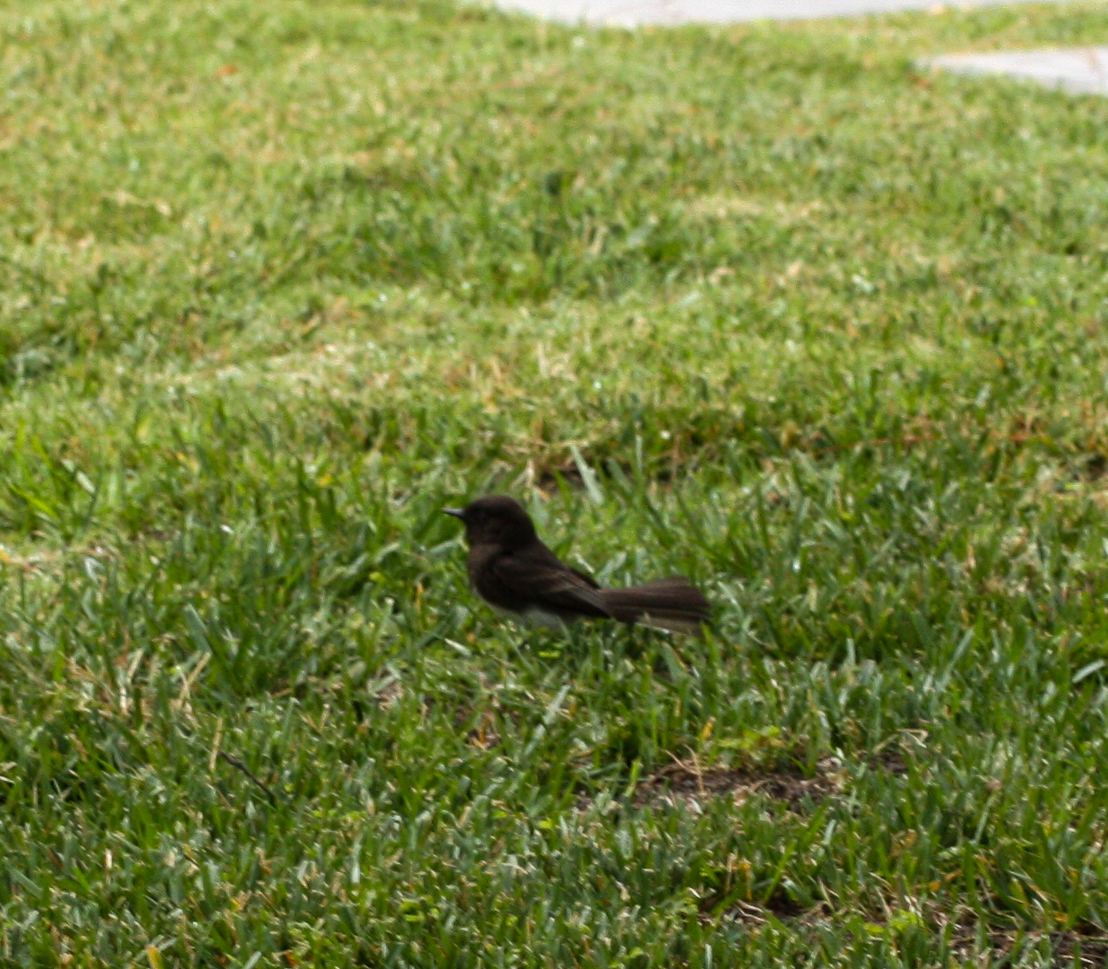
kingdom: Animalia
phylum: Chordata
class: Aves
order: Passeriformes
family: Tyrannidae
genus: Sayornis
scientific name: Sayornis nigricans
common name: Black phoebe
